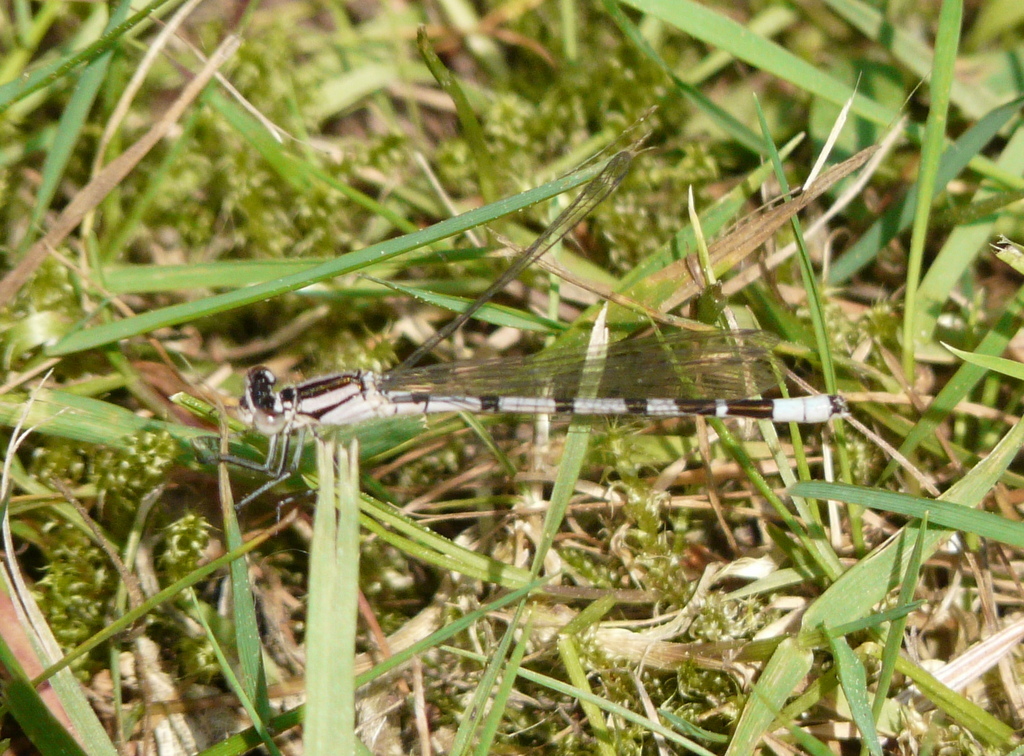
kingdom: Animalia
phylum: Arthropoda
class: Insecta
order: Odonata
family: Coenagrionidae
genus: Enallagma
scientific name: Enallagma cyathigerum
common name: Common blue damselfly
